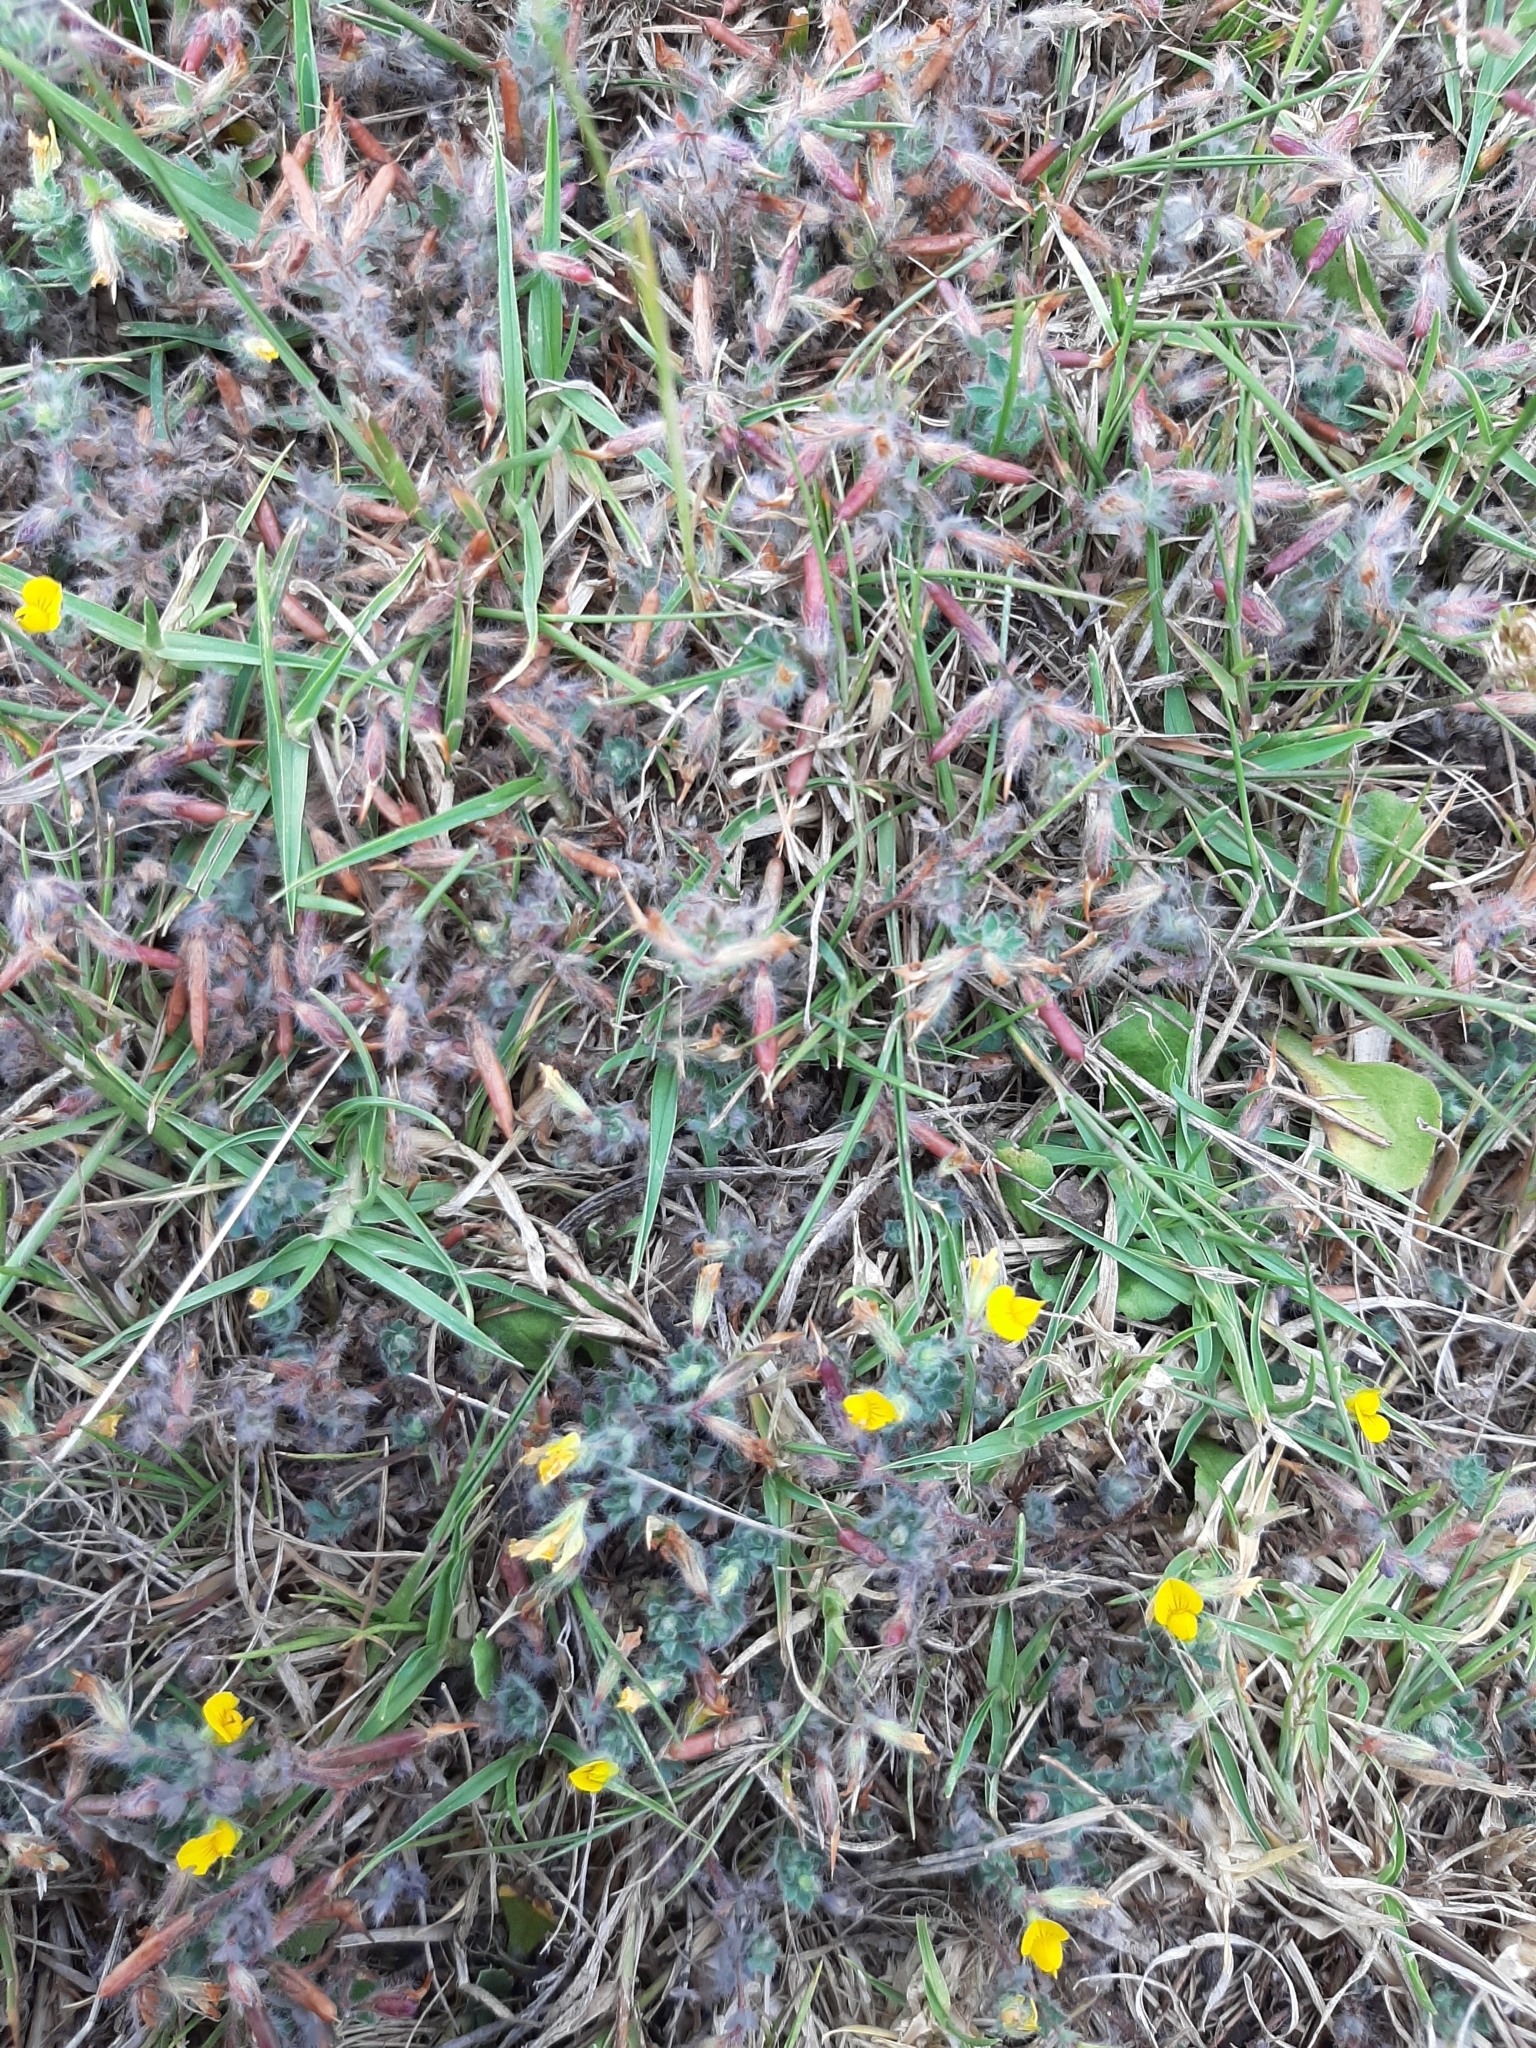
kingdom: Plantae
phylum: Tracheophyta
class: Magnoliopsida
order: Fabales
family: Fabaceae
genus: Lotus
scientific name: Lotus subbiflorus
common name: Hairy bird's-foot trefoil
